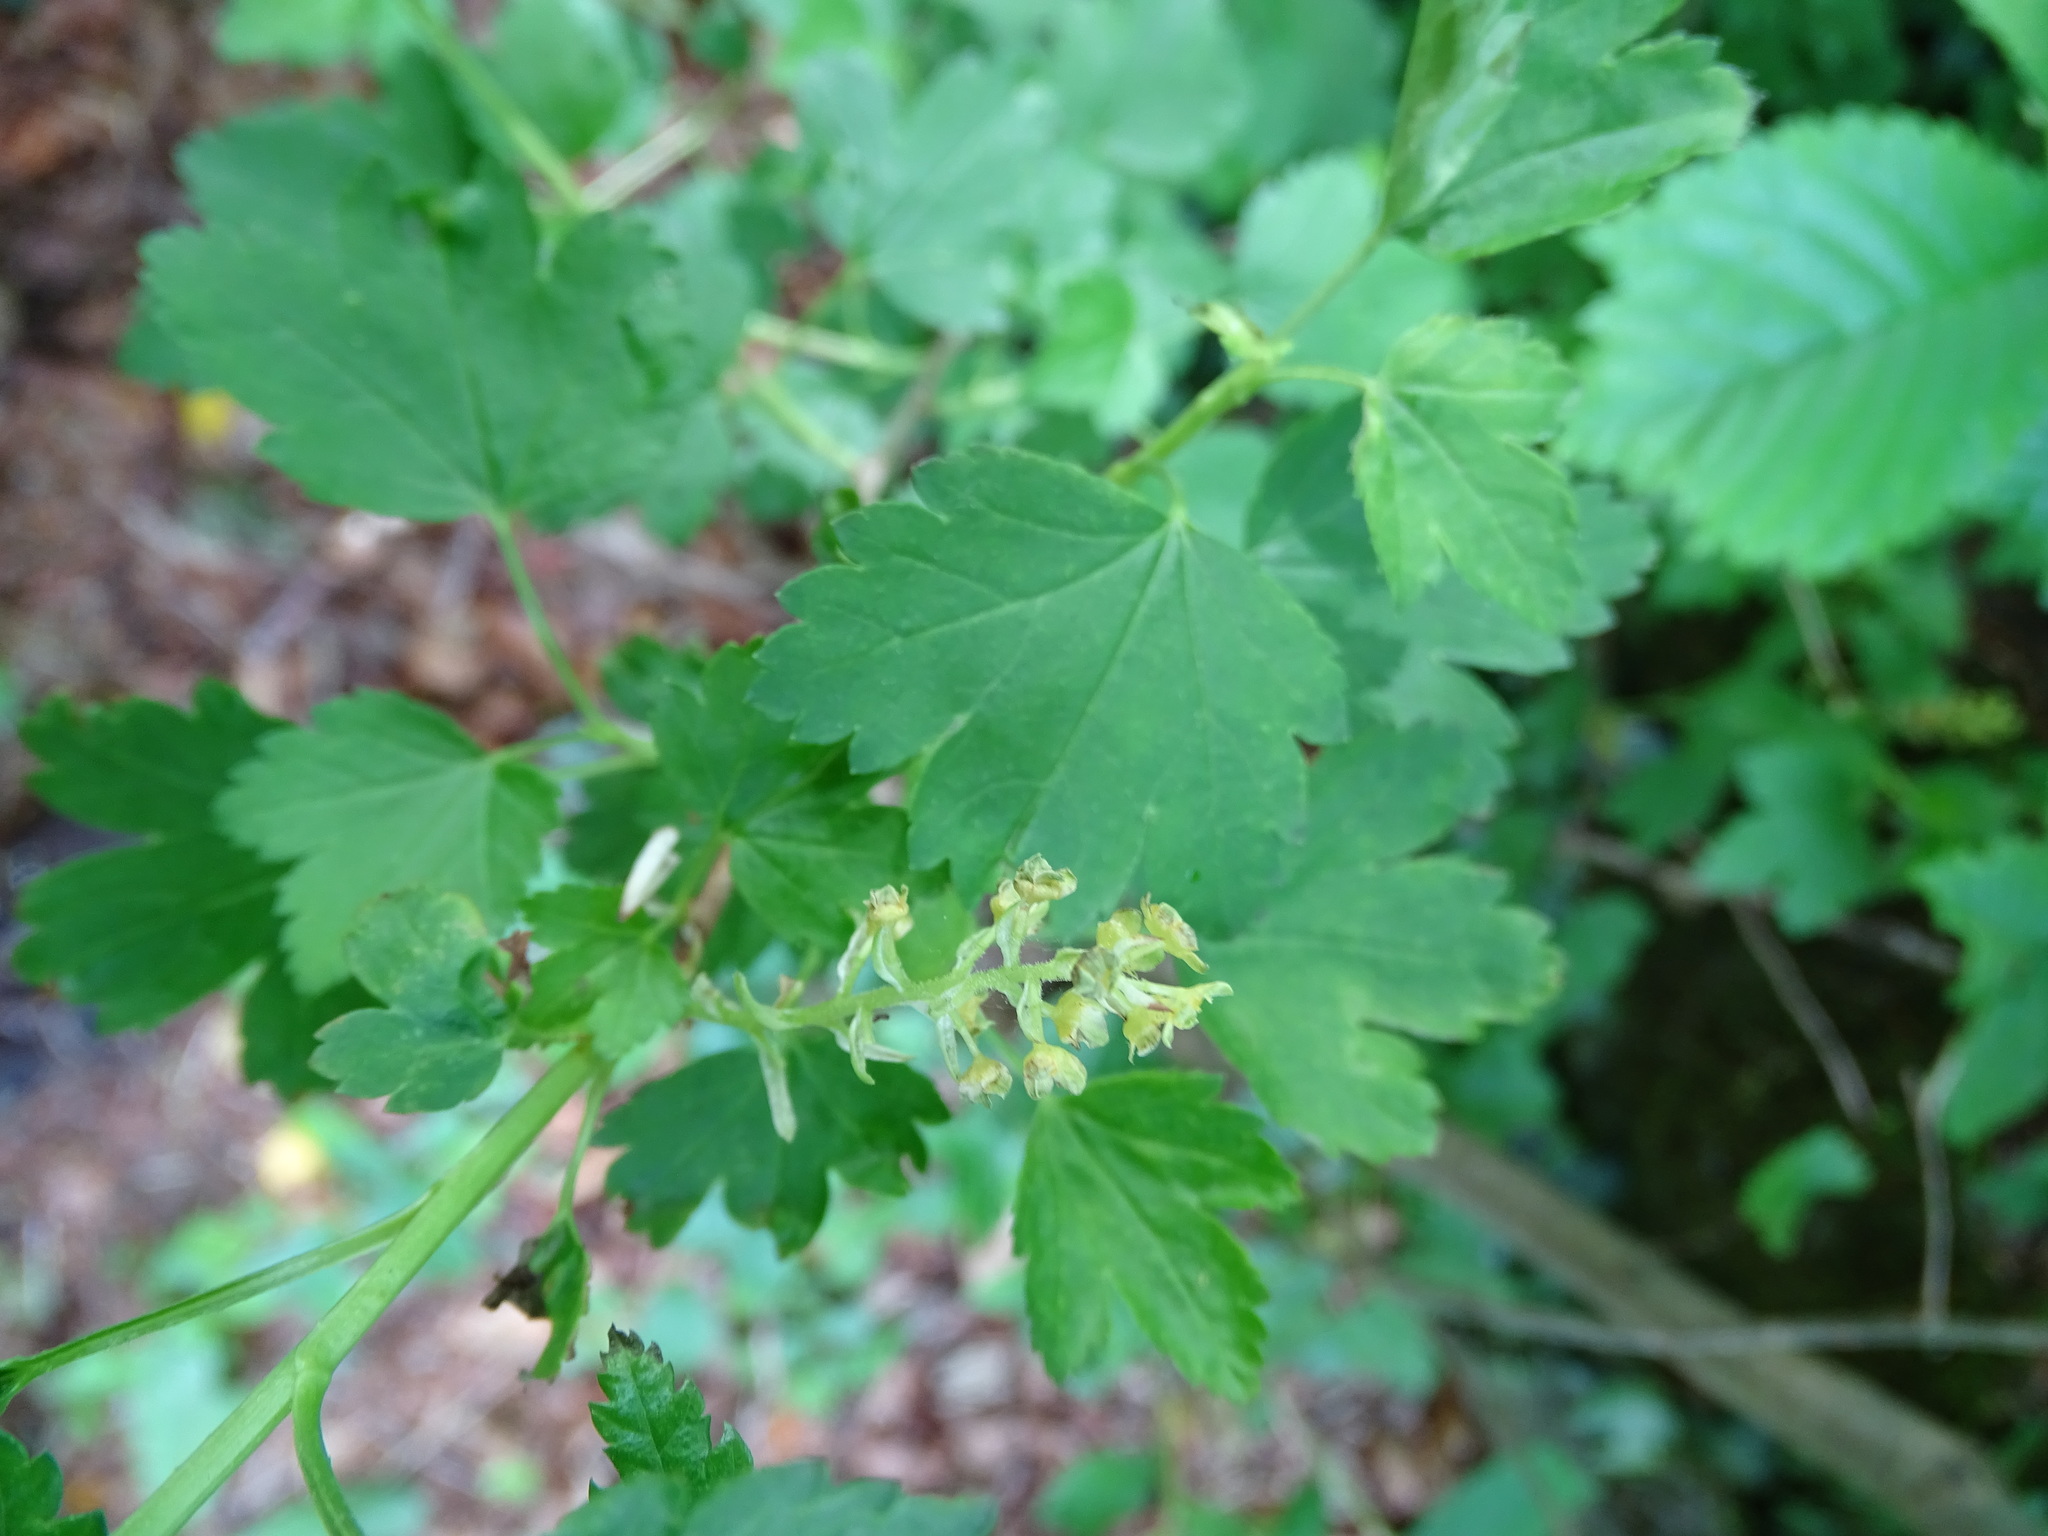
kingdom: Plantae
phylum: Tracheophyta
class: Magnoliopsida
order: Saxifragales
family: Grossulariaceae
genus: Ribes
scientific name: Ribes alpinum
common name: Alpine currant
